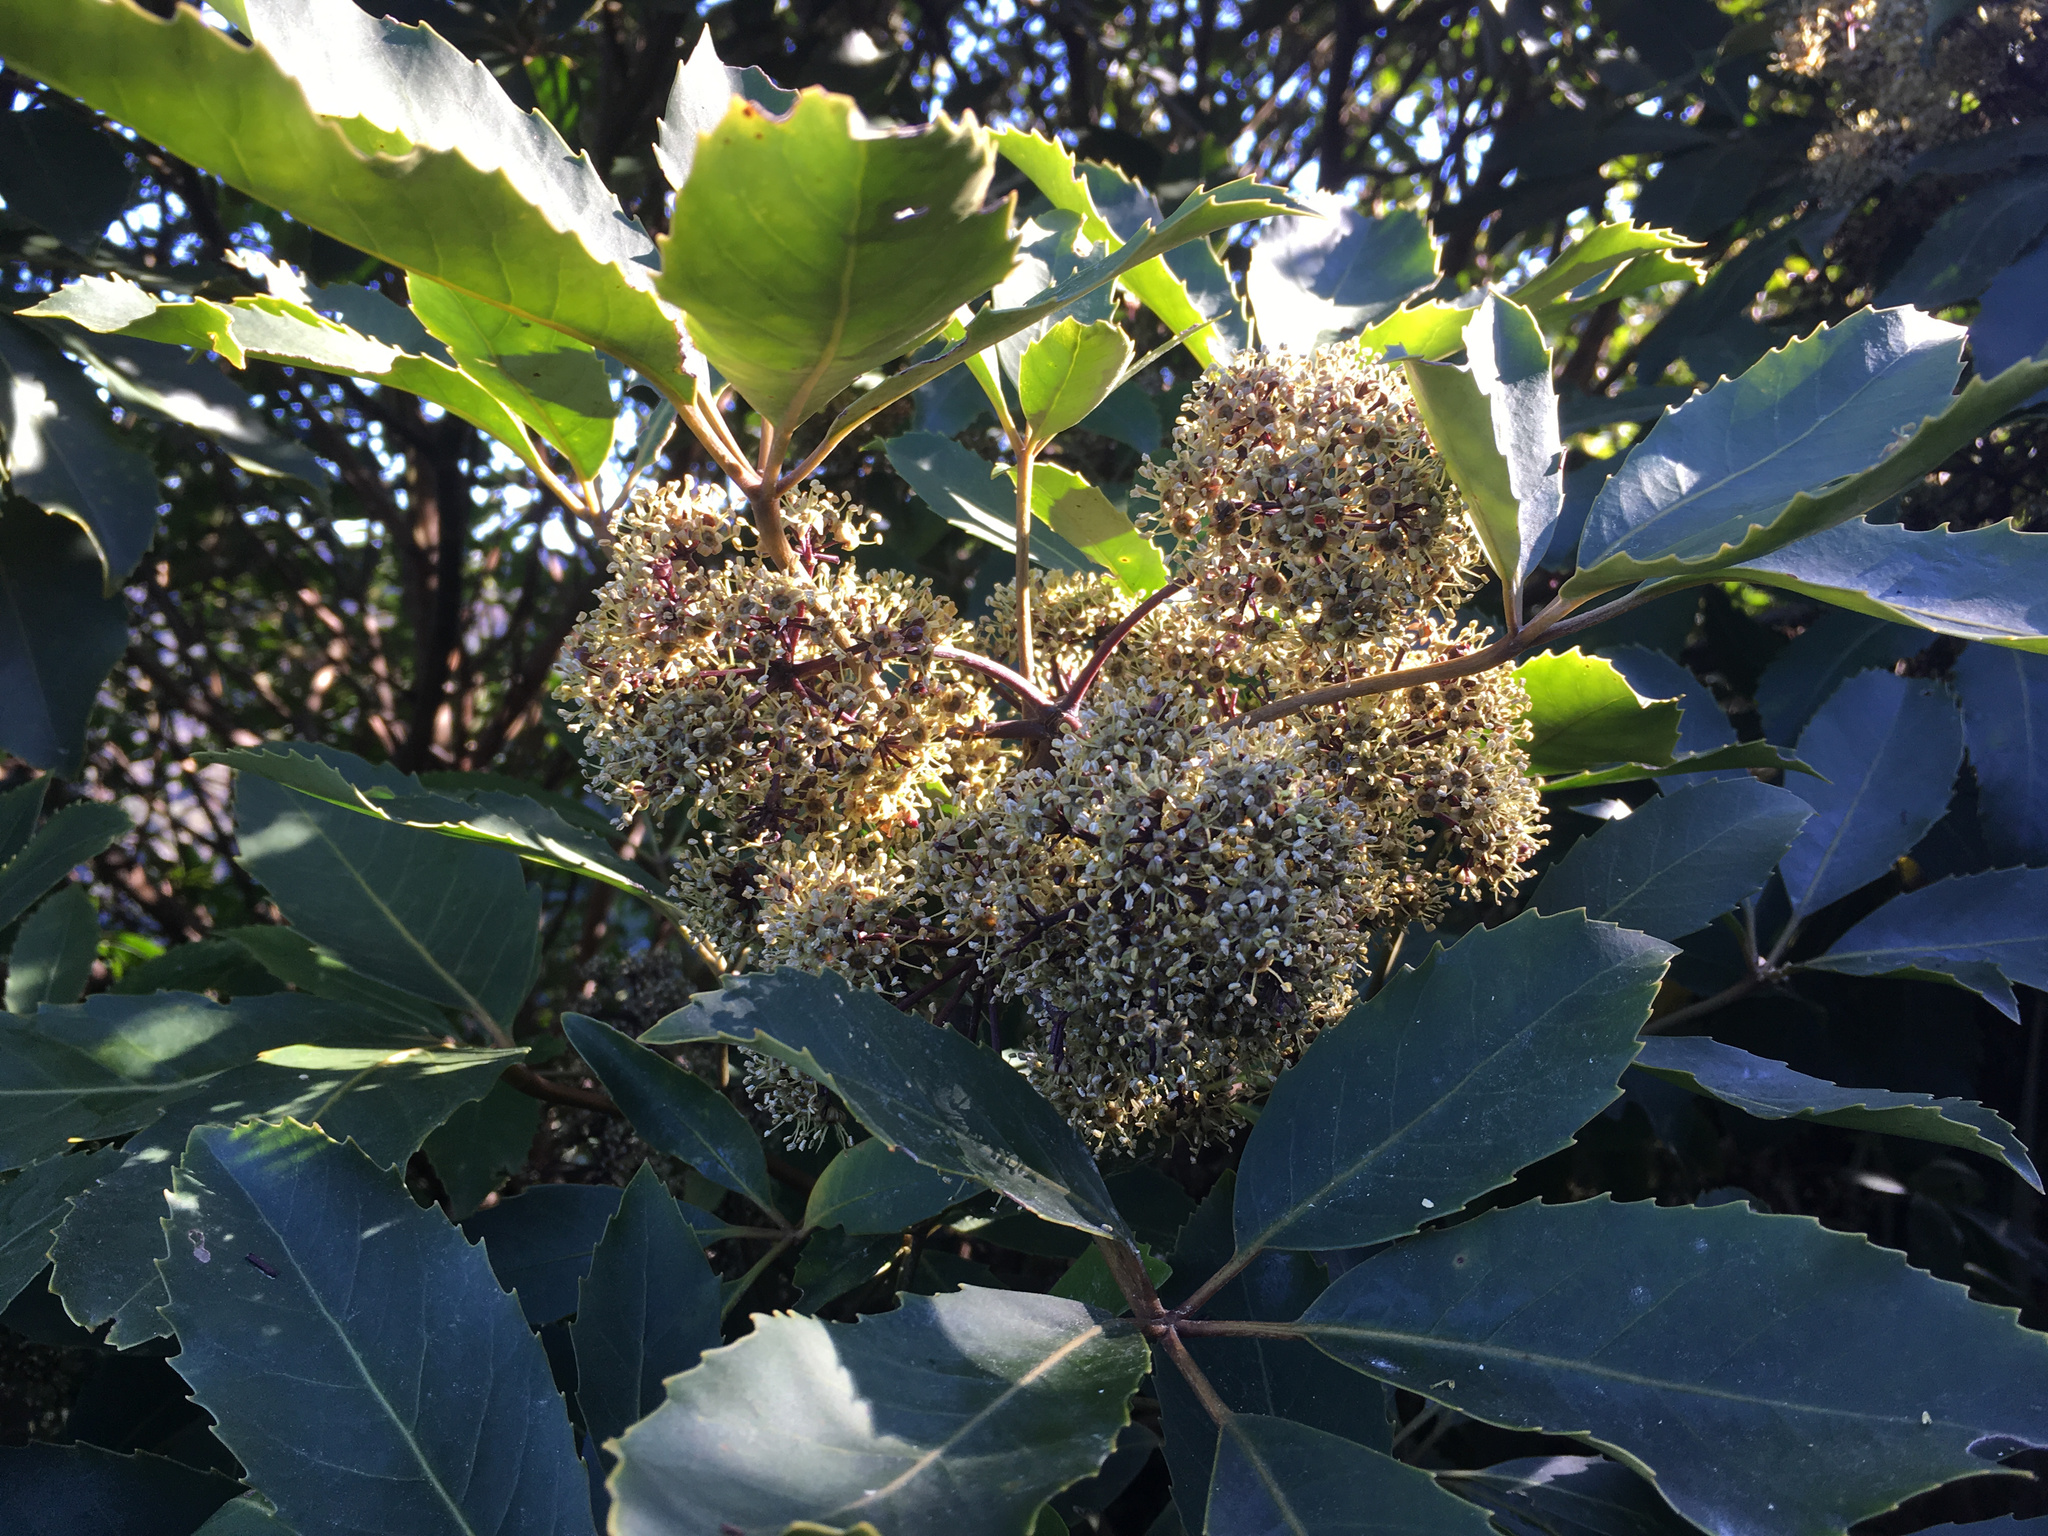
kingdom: Plantae
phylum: Tracheophyta
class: Magnoliopsida
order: Apiales
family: Araliaceae
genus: Neopanax
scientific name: Neopanax arboreus
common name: Five-fingers
